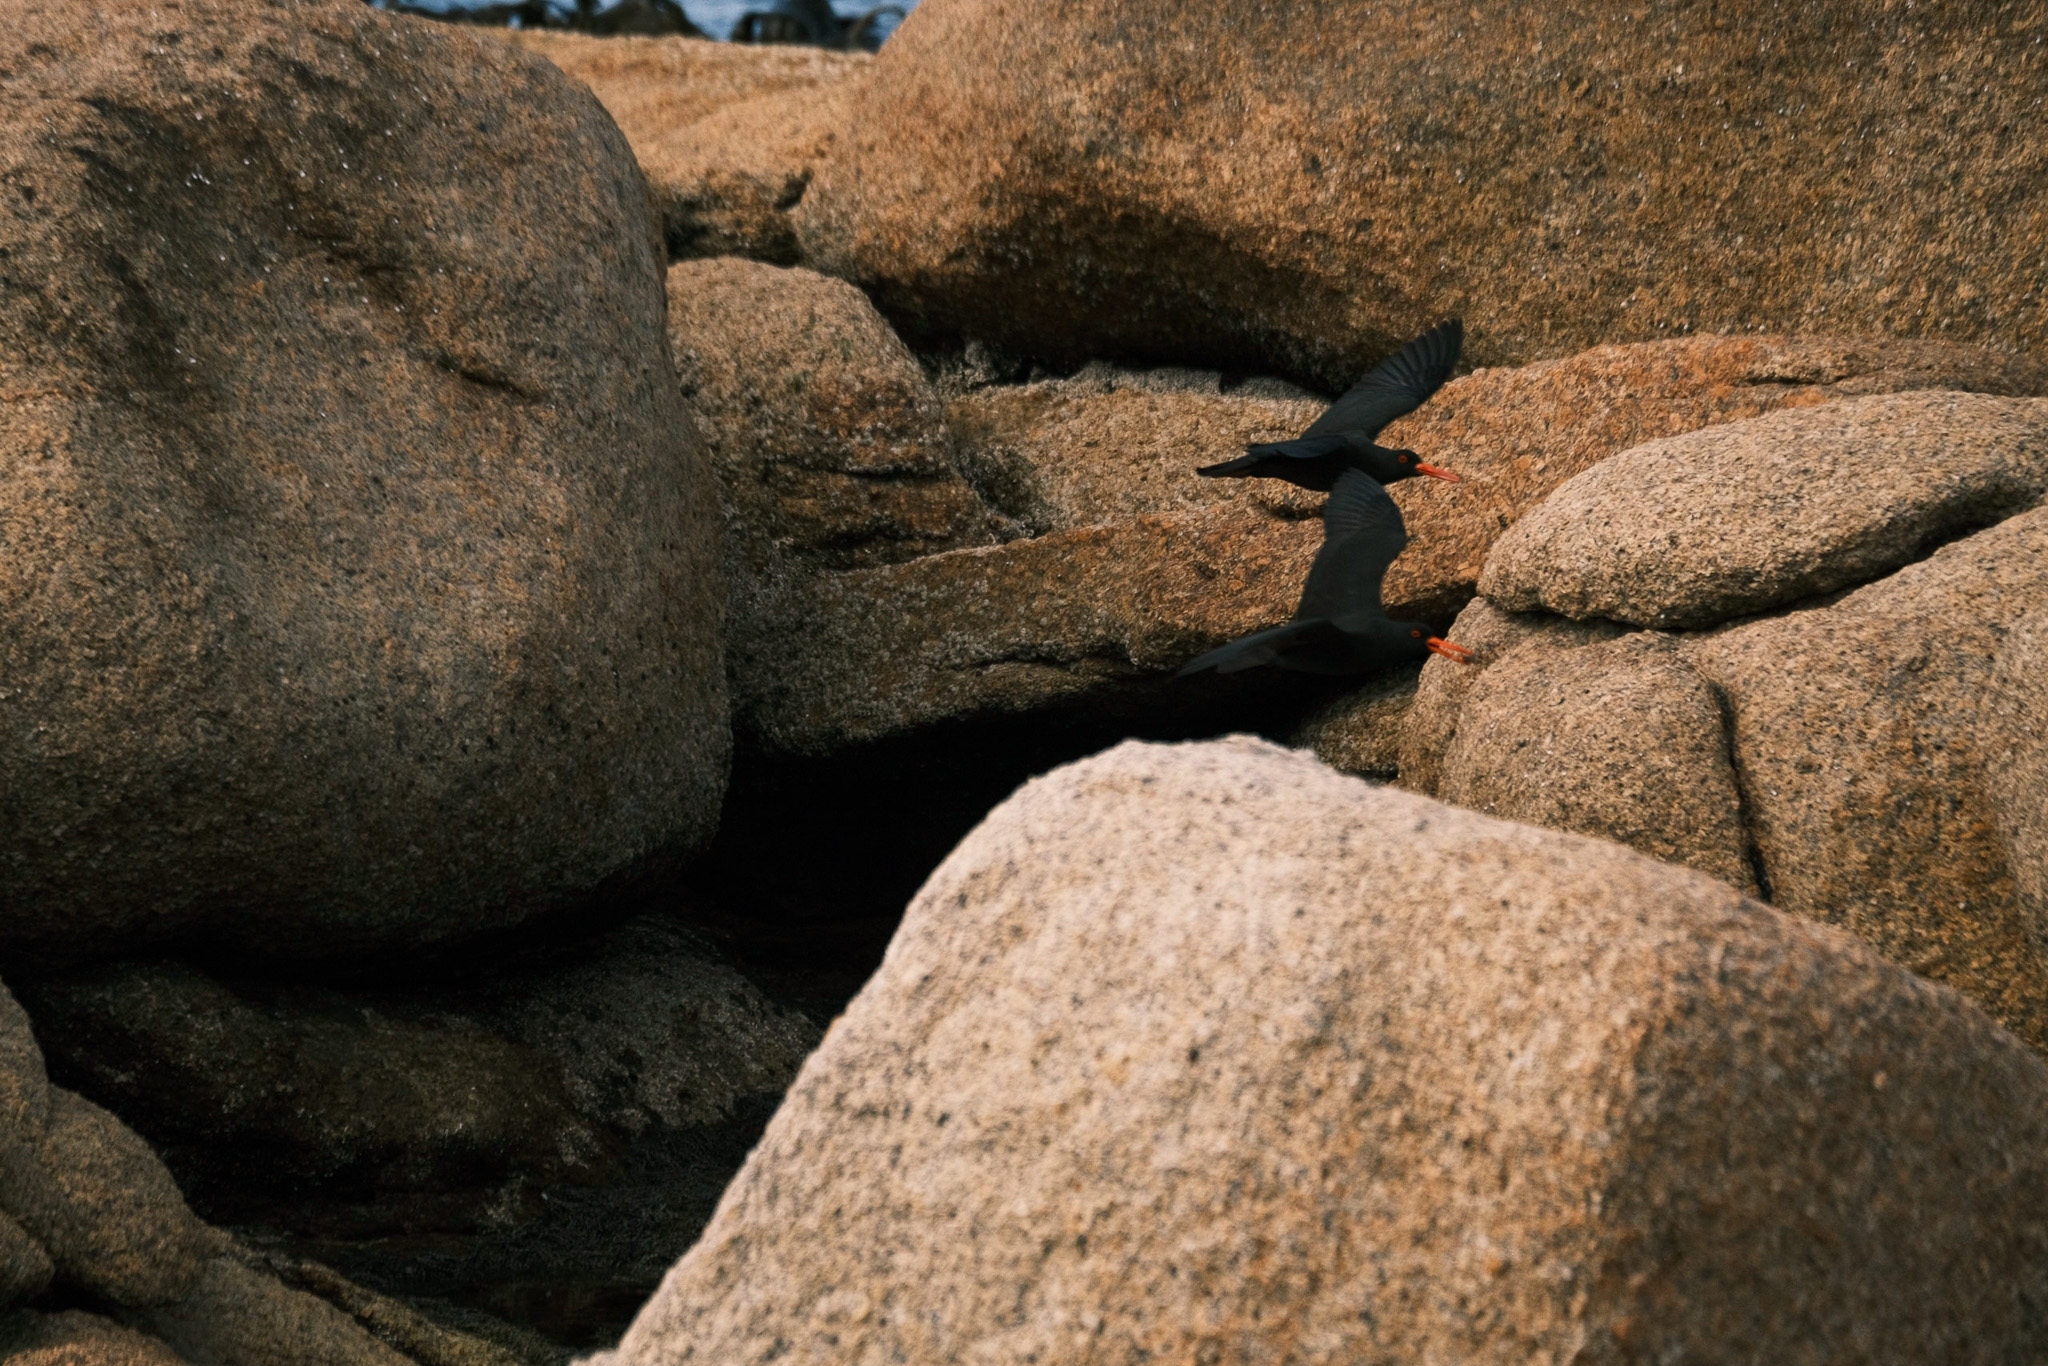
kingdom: Animalia
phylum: Chordata
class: Aves
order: Charadriiformes
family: Haematopodidae
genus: Haematopus
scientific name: Haematopus fuliginosus
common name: Sooty oystercatcher
